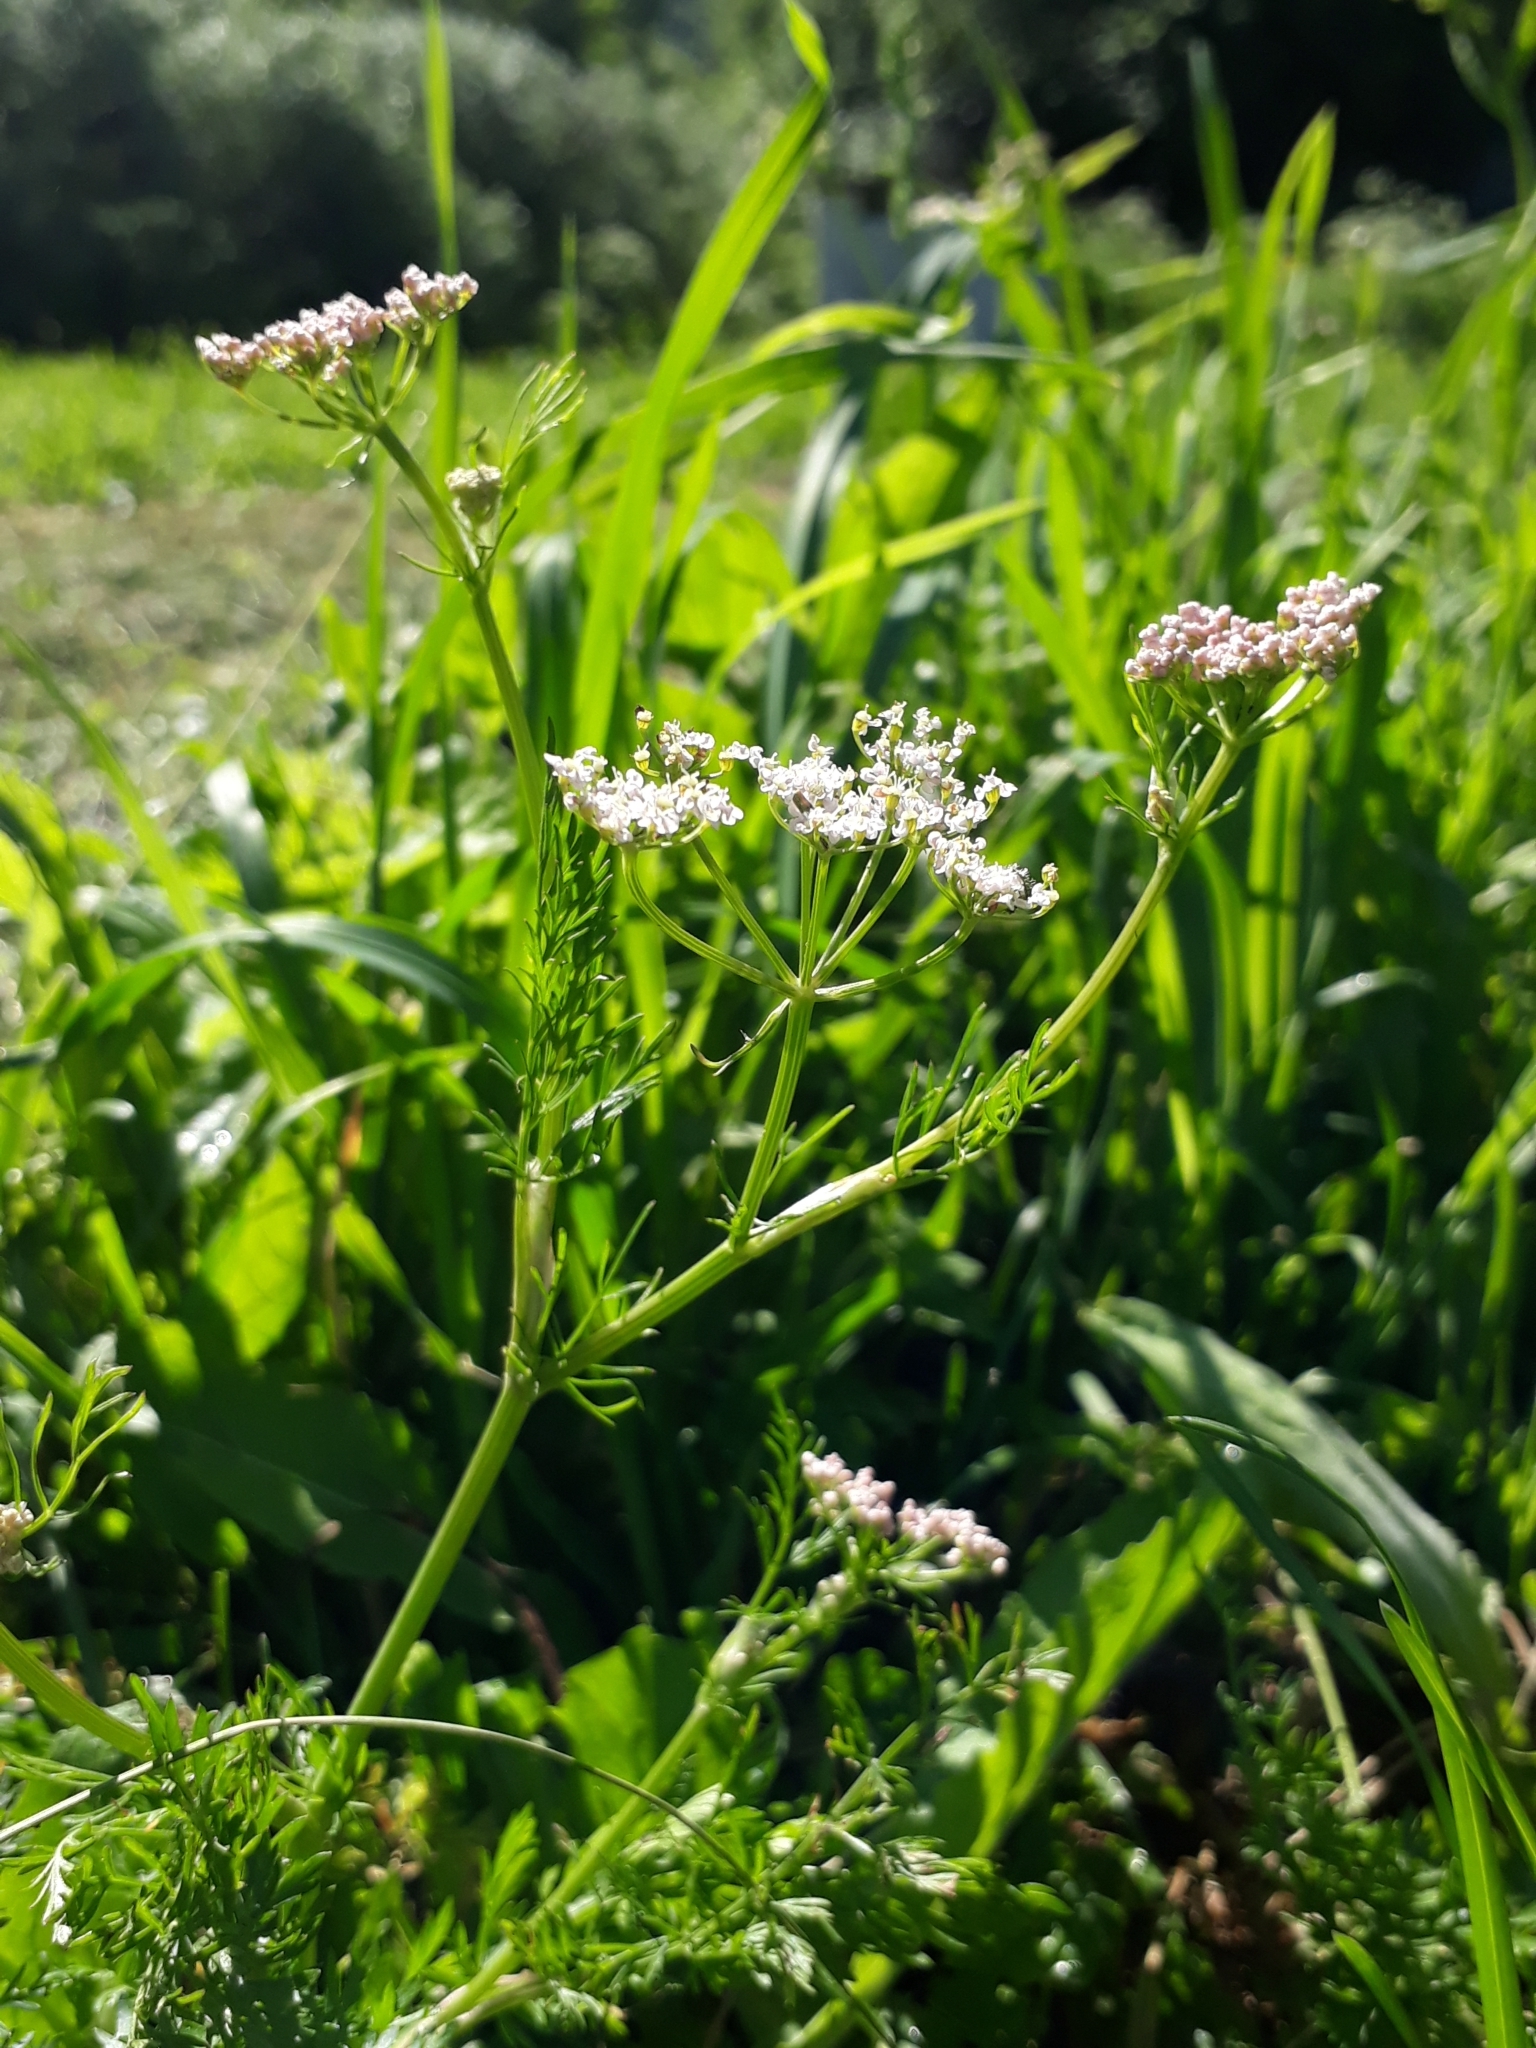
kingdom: Plantae
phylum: Tracheophyta
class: Magnoliopsida
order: Apiales
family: Apiaceae
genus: Carum
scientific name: Carum carvi
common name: Caraway
